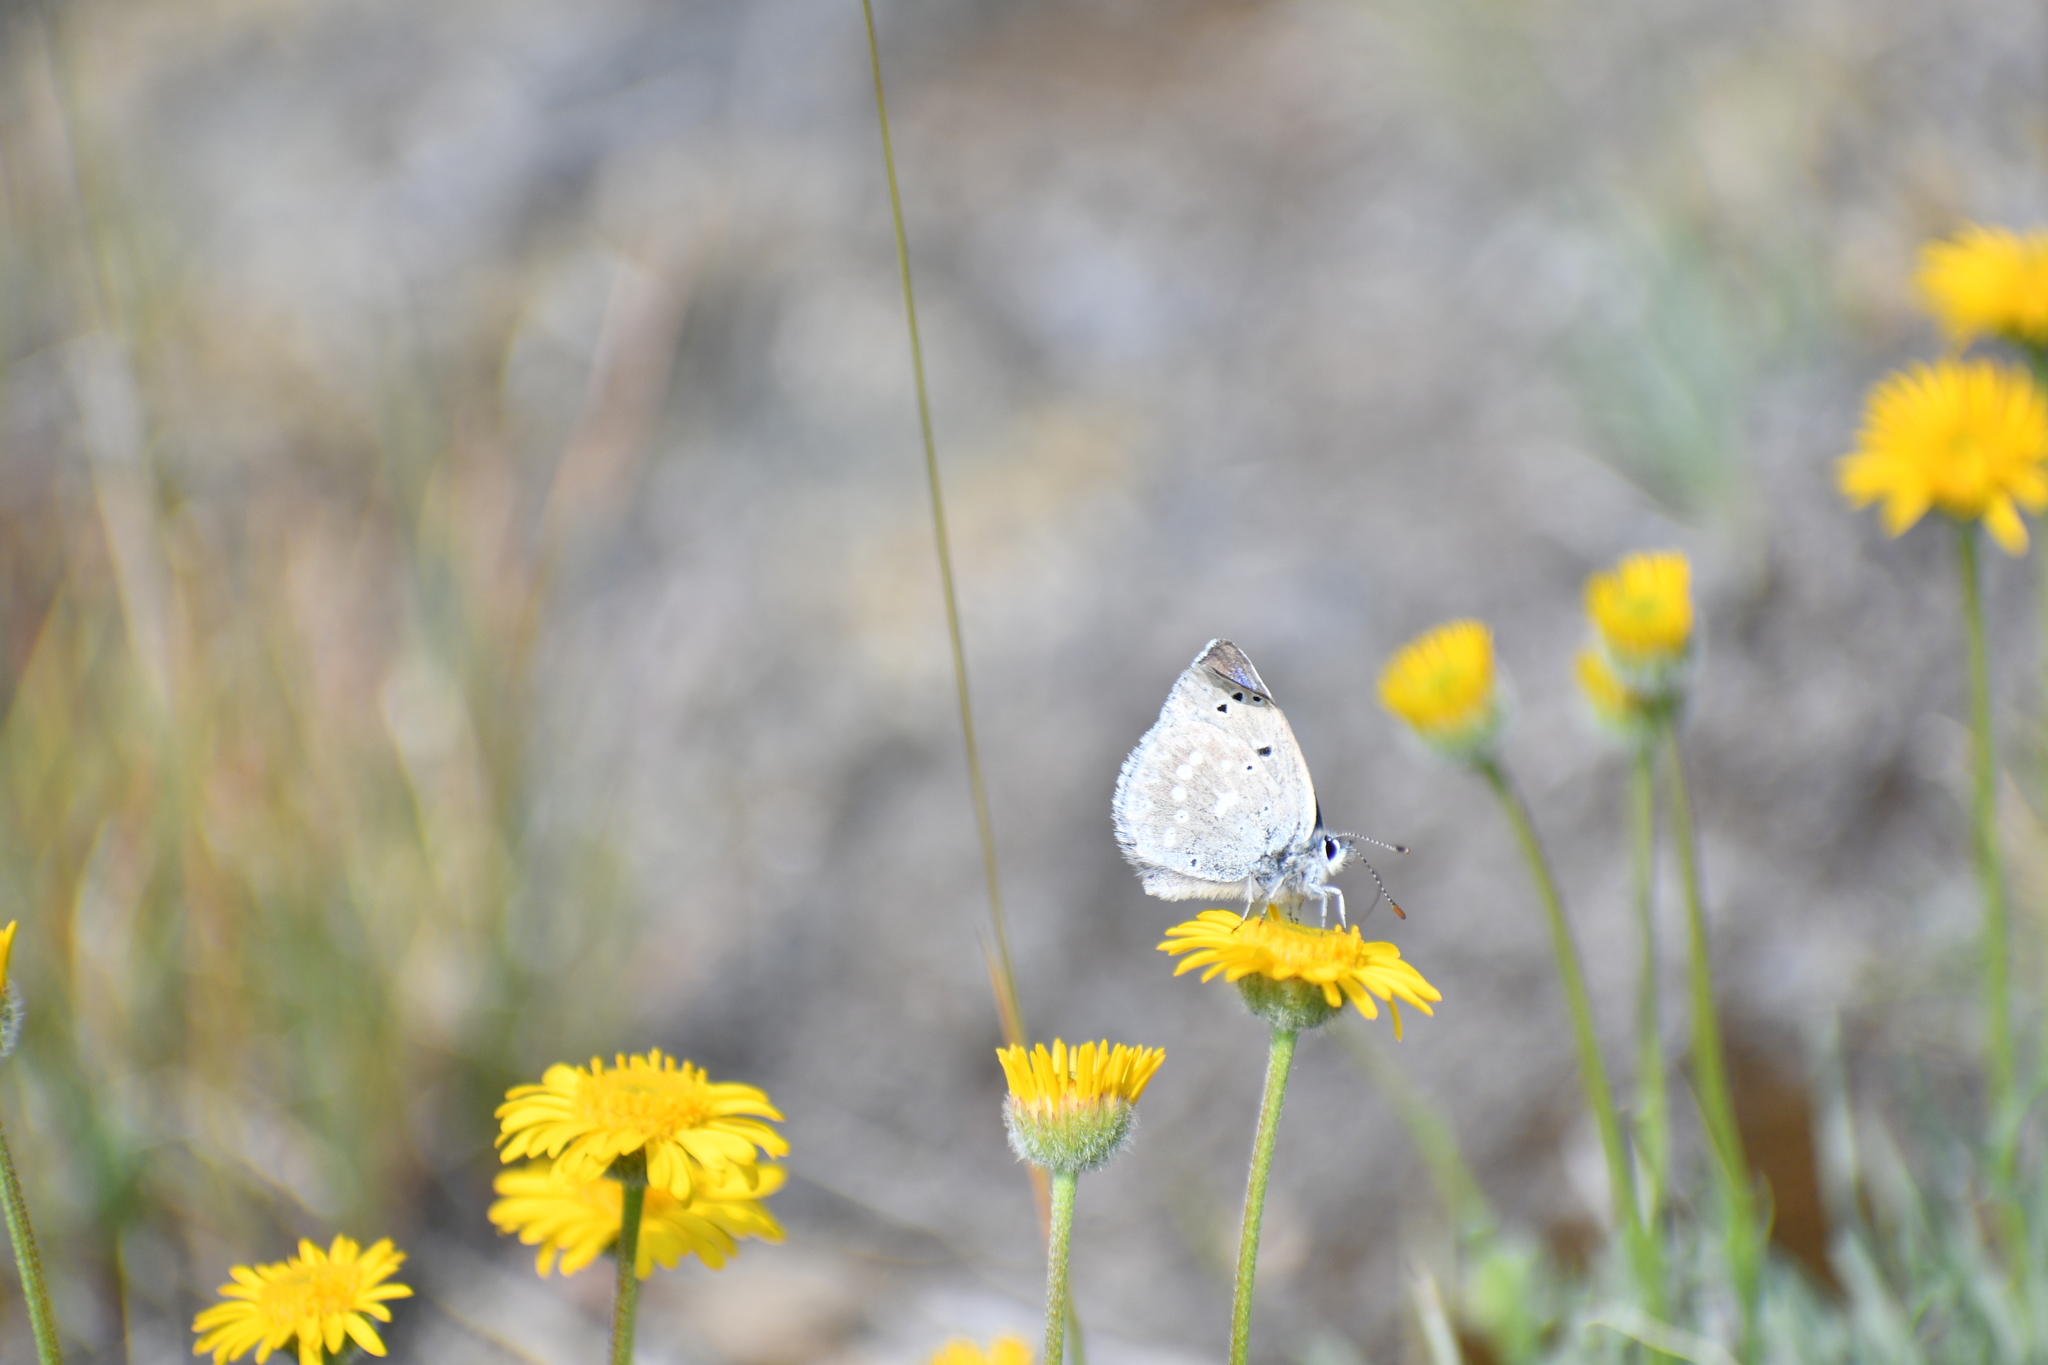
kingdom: Animalia
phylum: Arthropoda
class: Insecta
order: Lepidoptera
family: Lycaenidae
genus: Icaricia
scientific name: Icaricia icarioides
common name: Boisduval's blue
